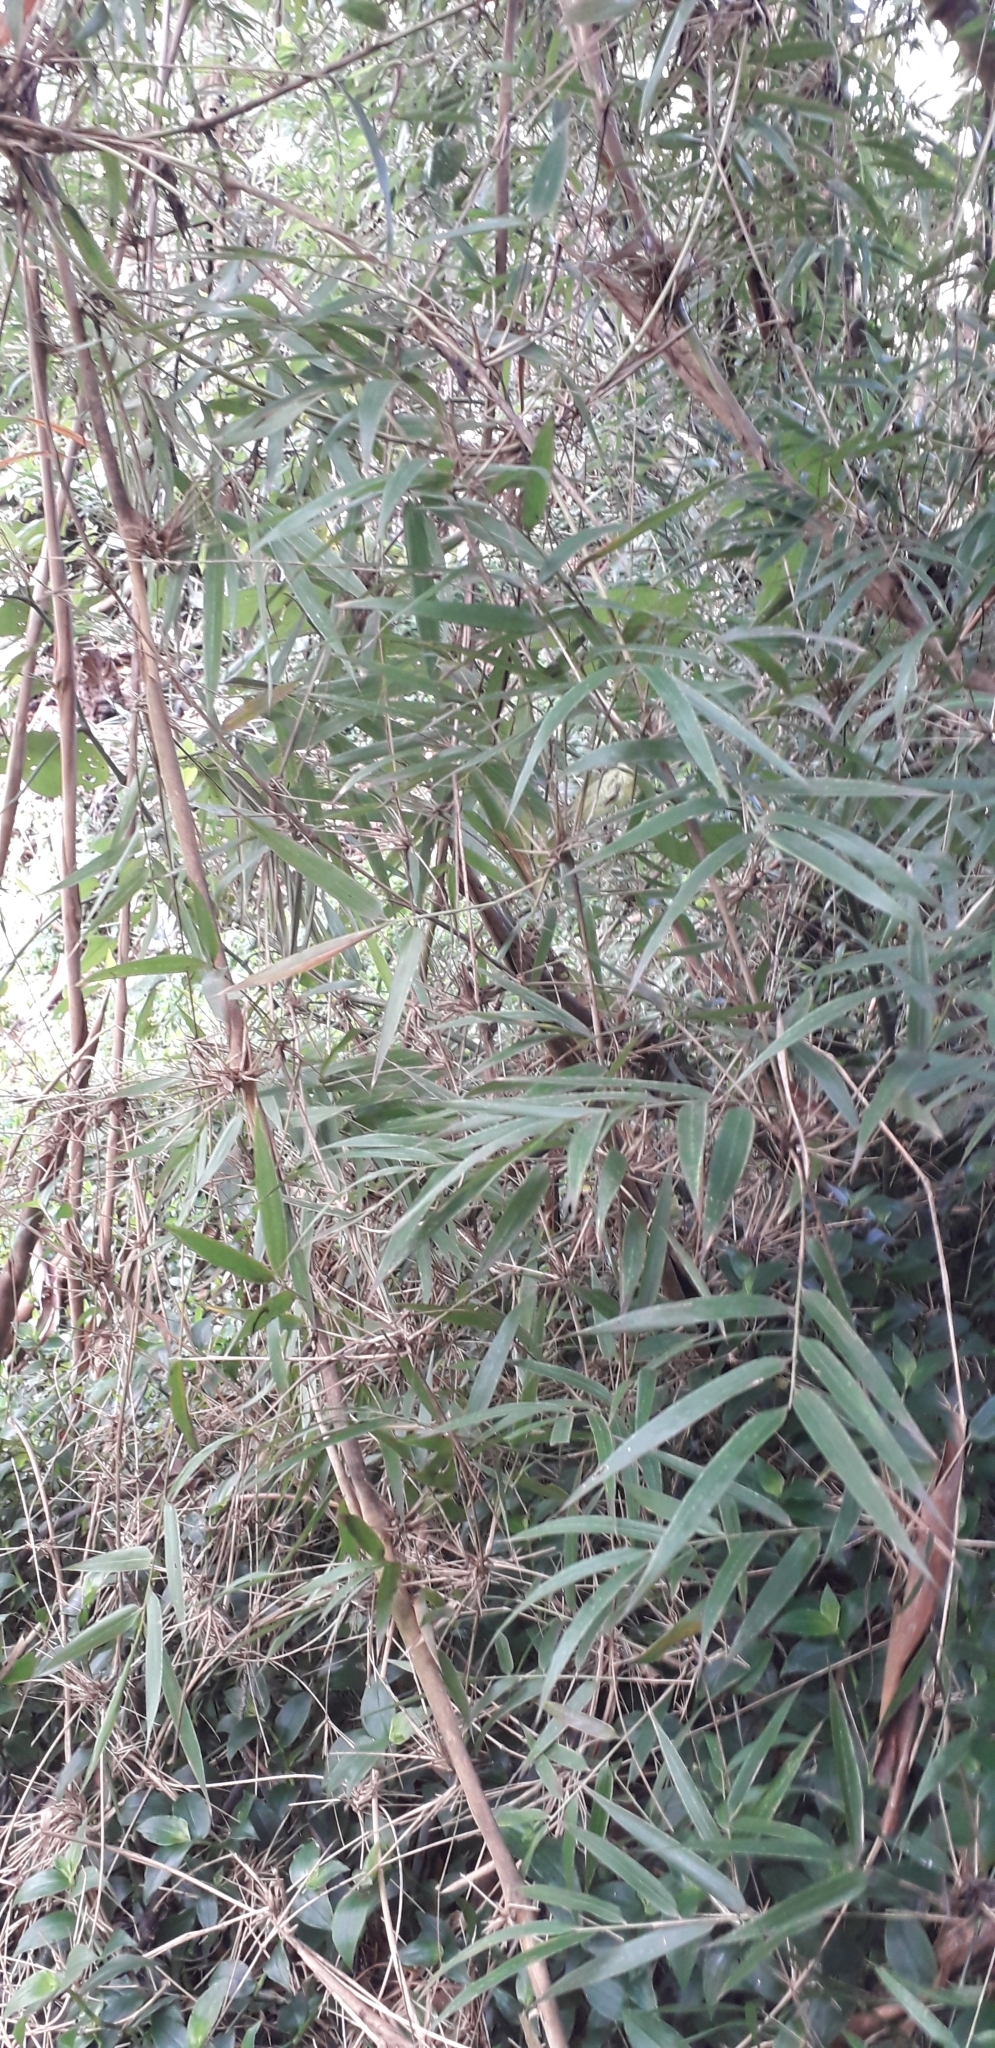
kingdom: Plantae
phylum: Tracheophyta
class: Liliopsida
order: Poales
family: Poaceae
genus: Chusquea
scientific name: Chusquea scandens
